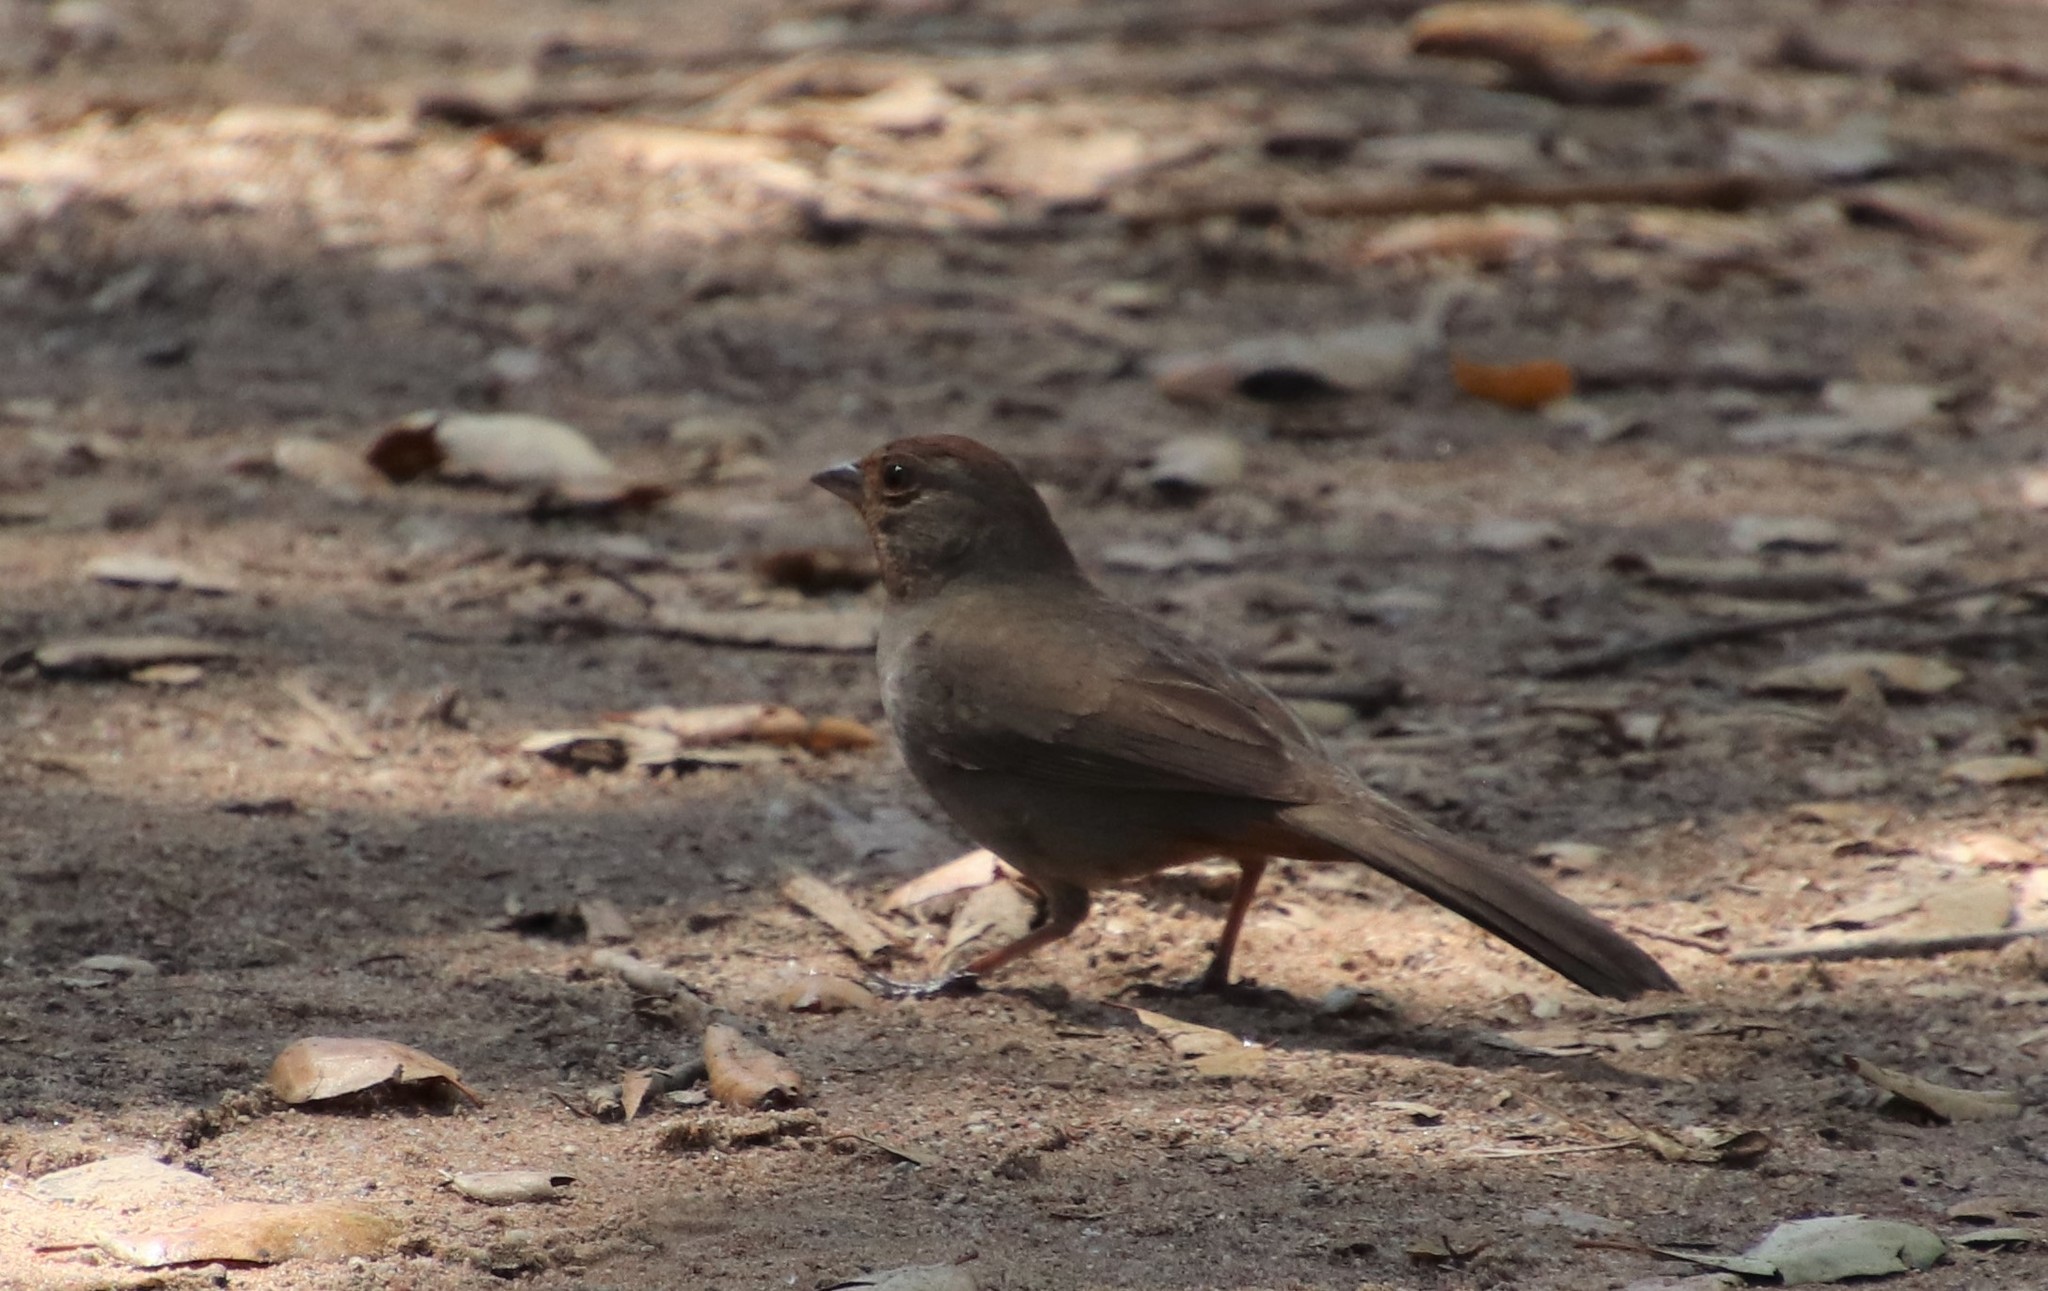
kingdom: Animalia
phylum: Chordata
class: Aves
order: Passeriformes
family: Passerellidae
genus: Melozone
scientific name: Melozone crissalis
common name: California towhee
